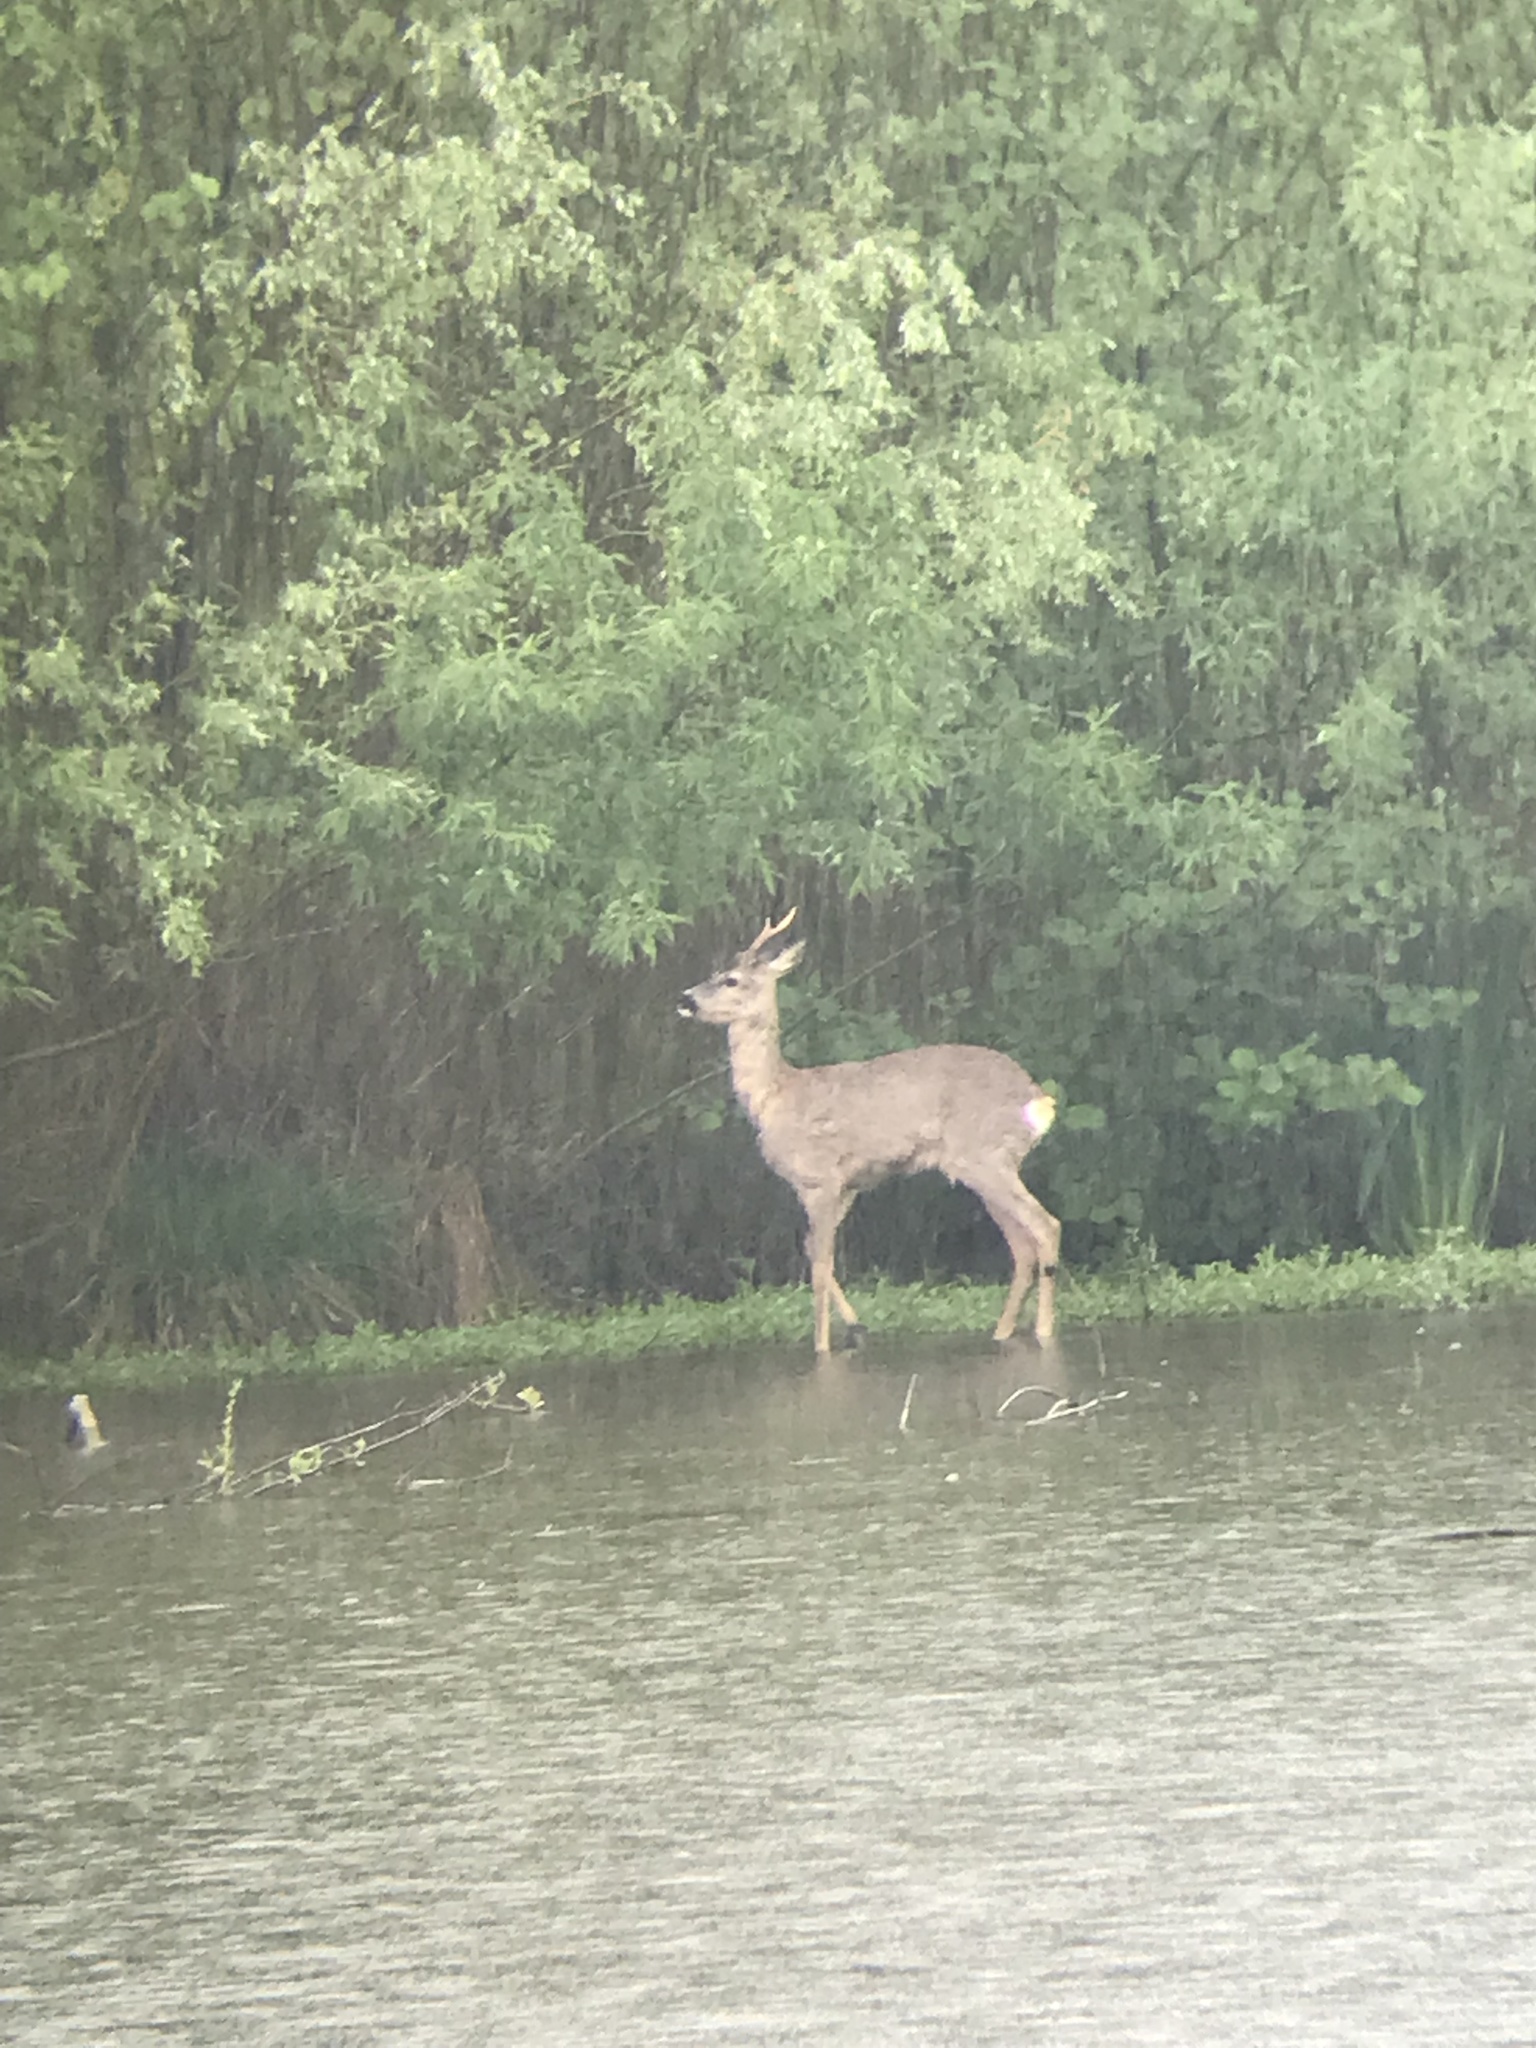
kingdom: Animalia
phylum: Chordata
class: Mammalia
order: Artiodactyla
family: Cervidae
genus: Capreolus
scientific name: Capreolus capreolus
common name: Western roe deer
